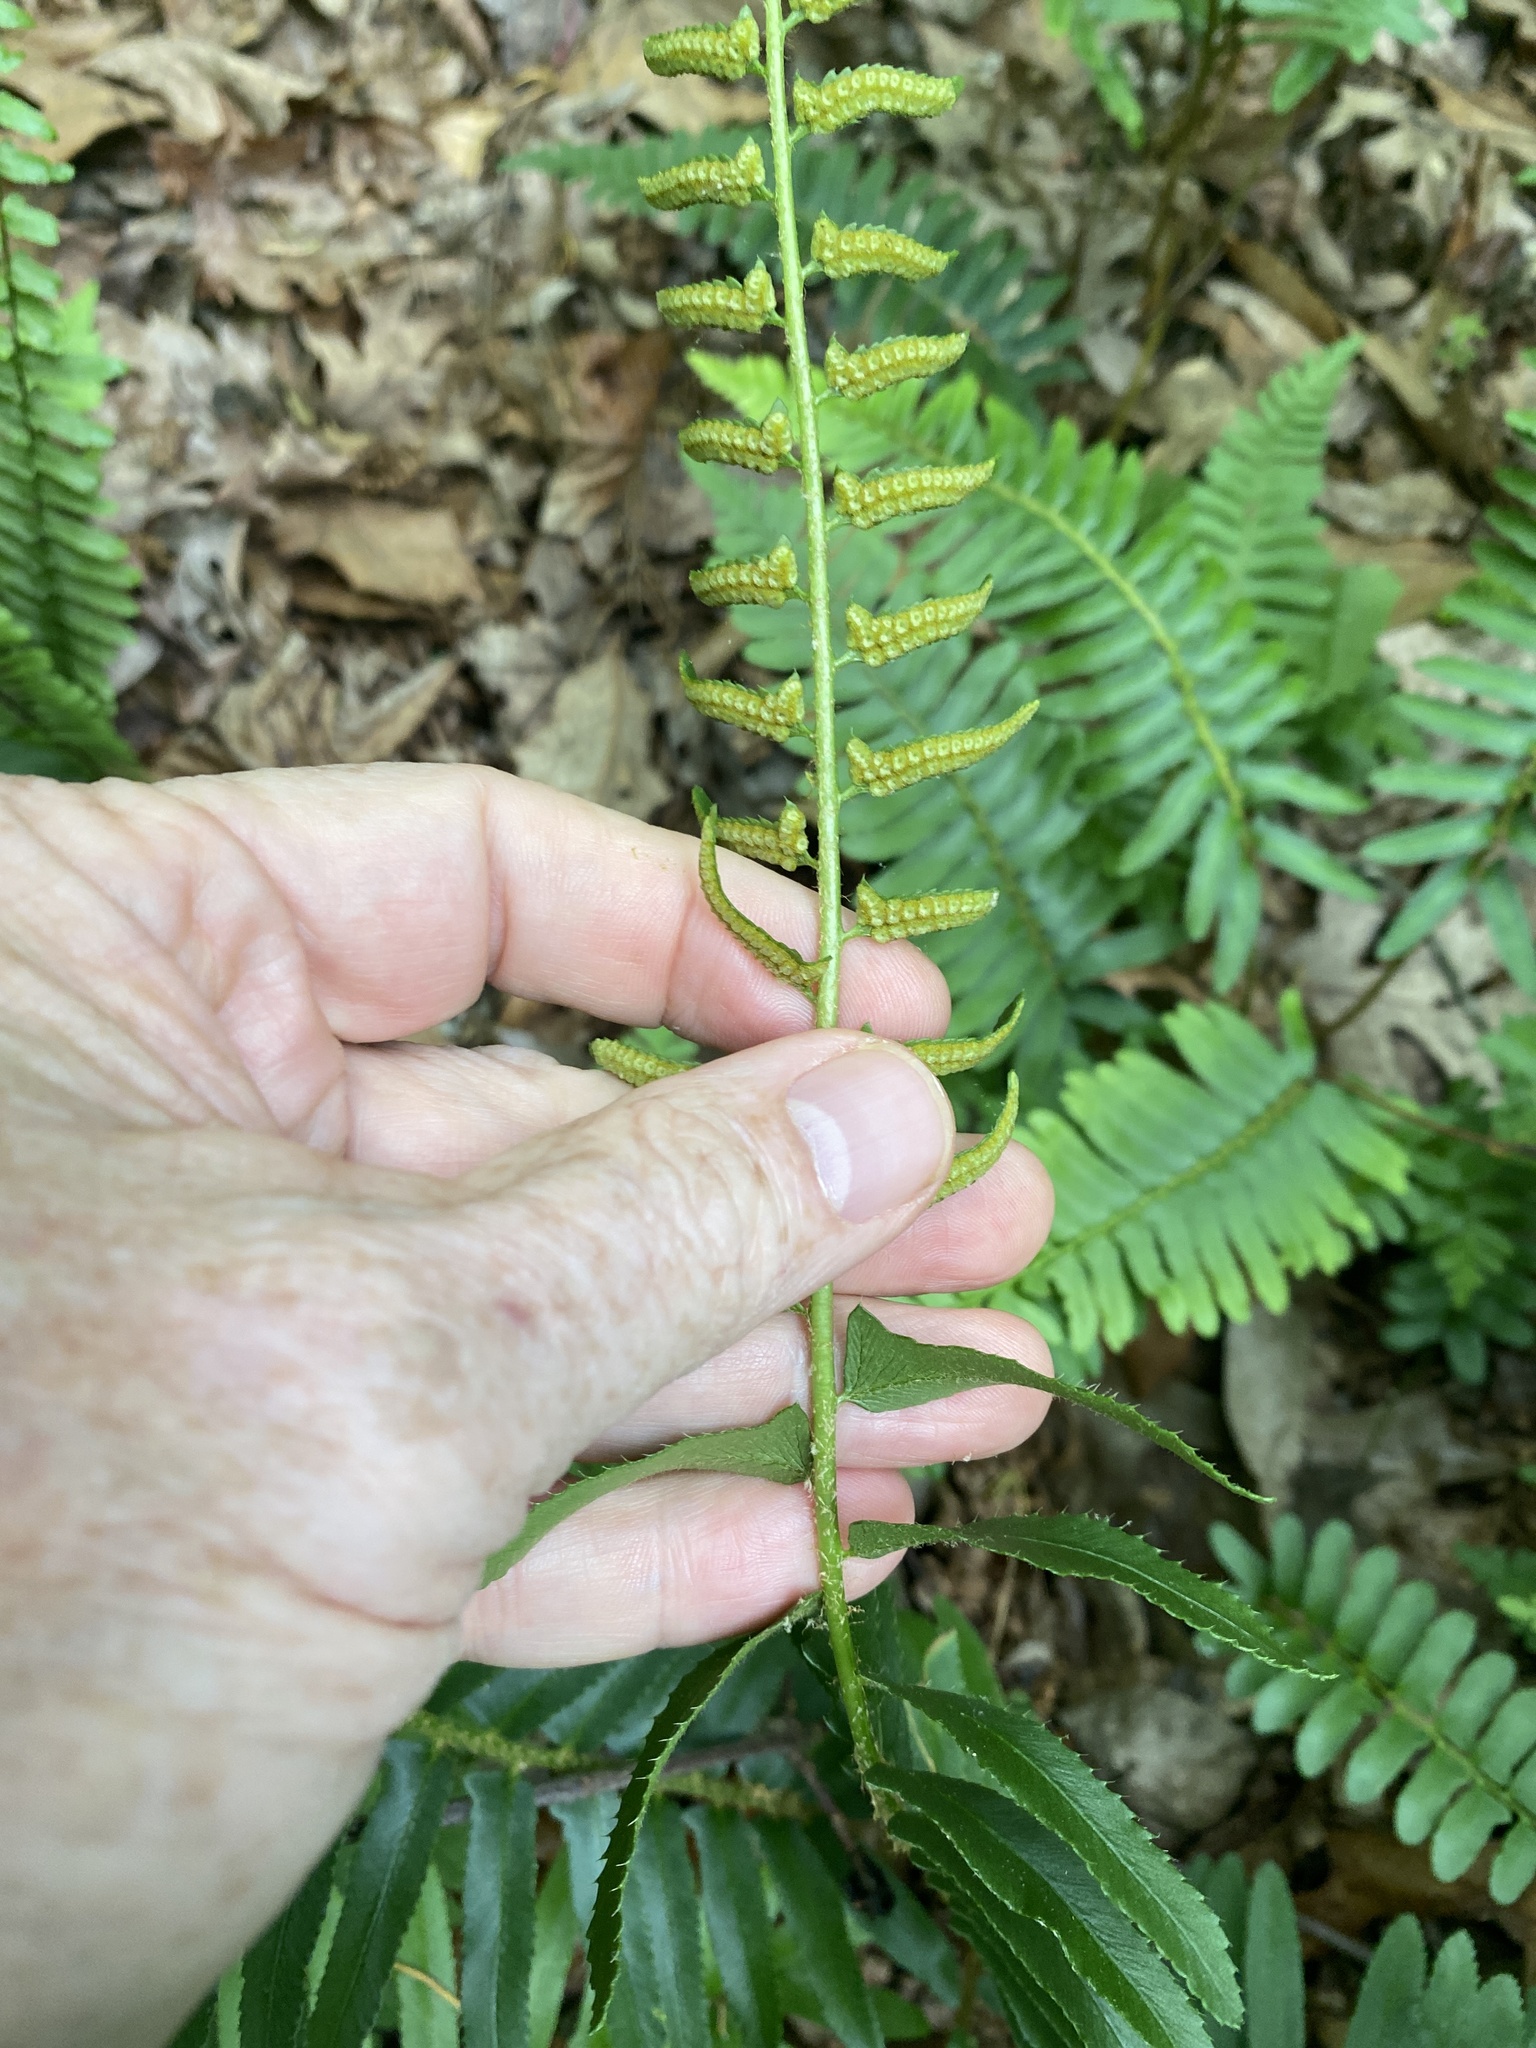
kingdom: Plantae
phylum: Tracheophyta
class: Polypodiopsida
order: Polypodiales
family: Dryopteridaceae
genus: Polystichum
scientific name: Polystichum acrostichoides
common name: Christmas fern
